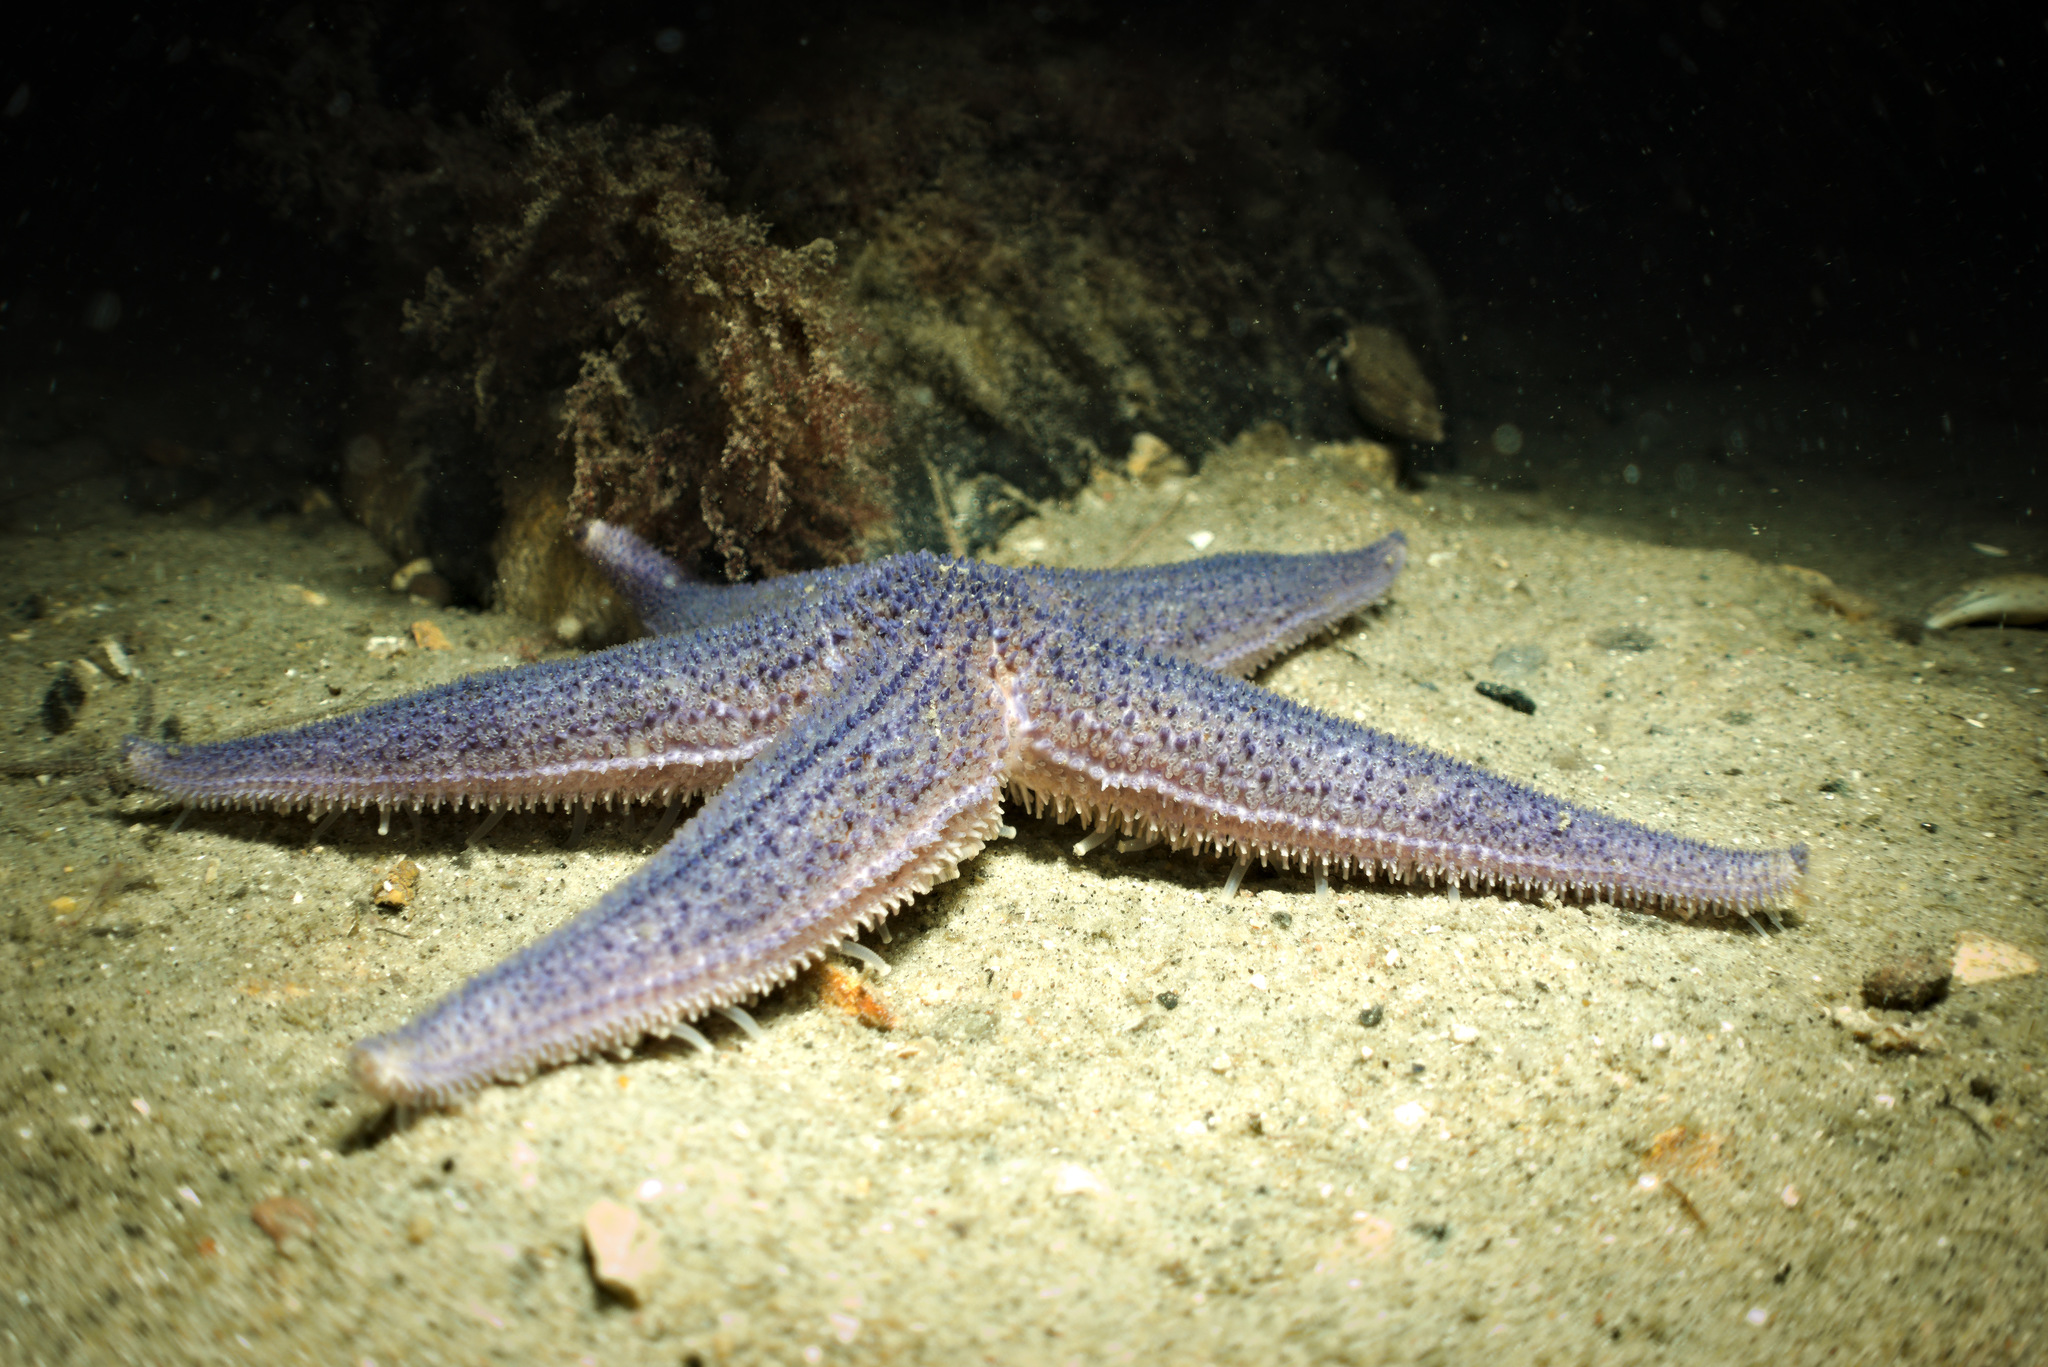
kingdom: Animalia
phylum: Echinodermata
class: Asteroidea
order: Forcipulatida
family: Asteriidae
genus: Asterias
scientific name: Asterias rubens
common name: Common starfish
